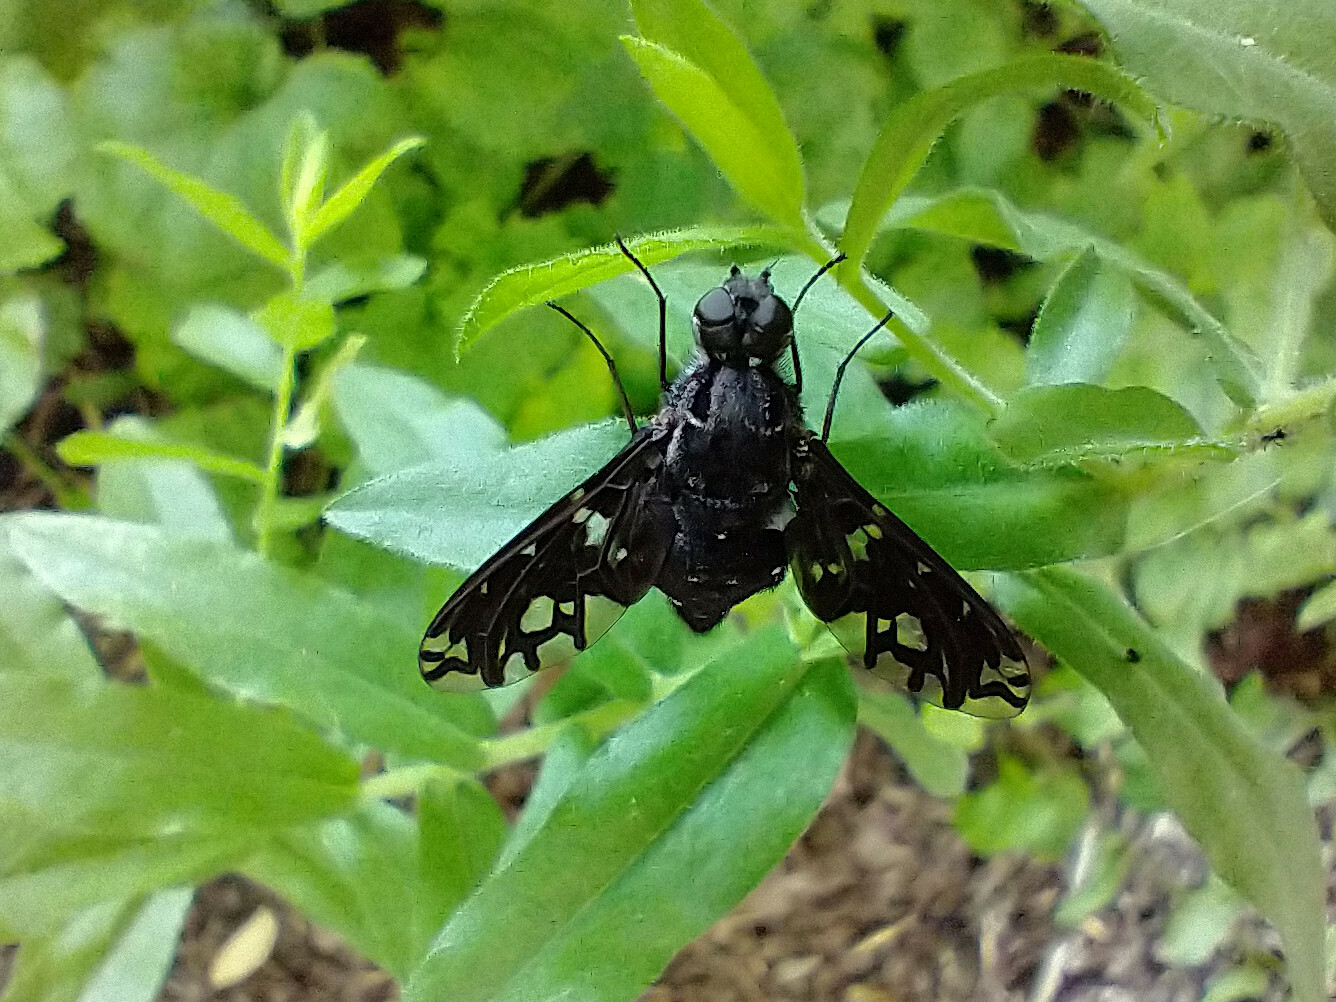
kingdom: Animalia
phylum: Arthropoda
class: Insecta
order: Diptera
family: Bombyliidae
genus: Xenox
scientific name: Xenox tigrinus
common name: Tiger bee fly
